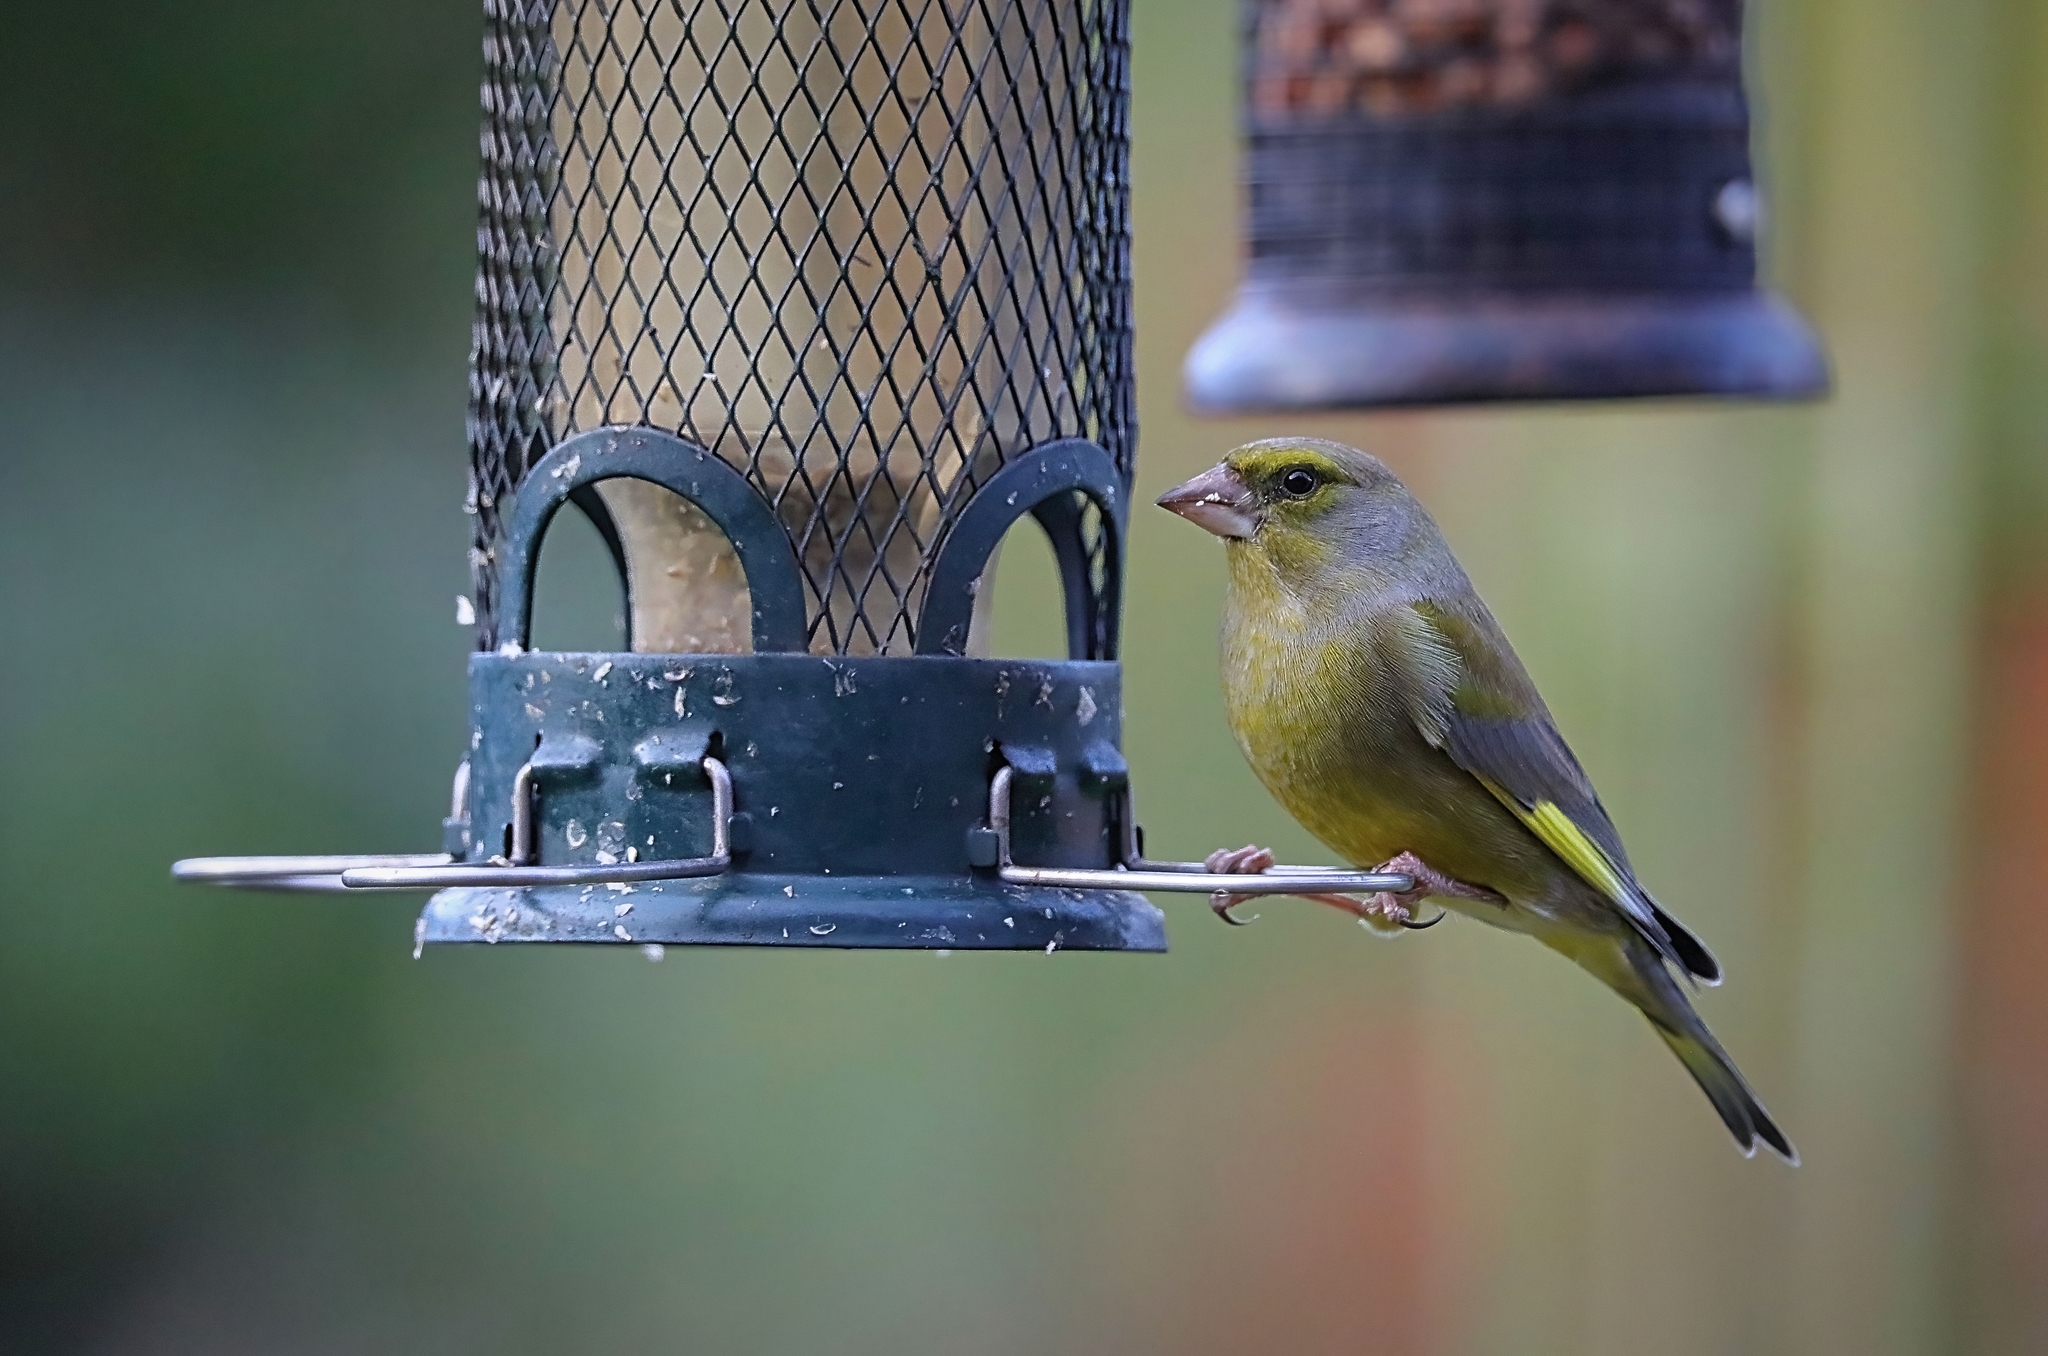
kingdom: Plantae
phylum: Tracheophyta
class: Liliopsida
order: Poales
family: Poaceae
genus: Chloris
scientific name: Chloris chloris
